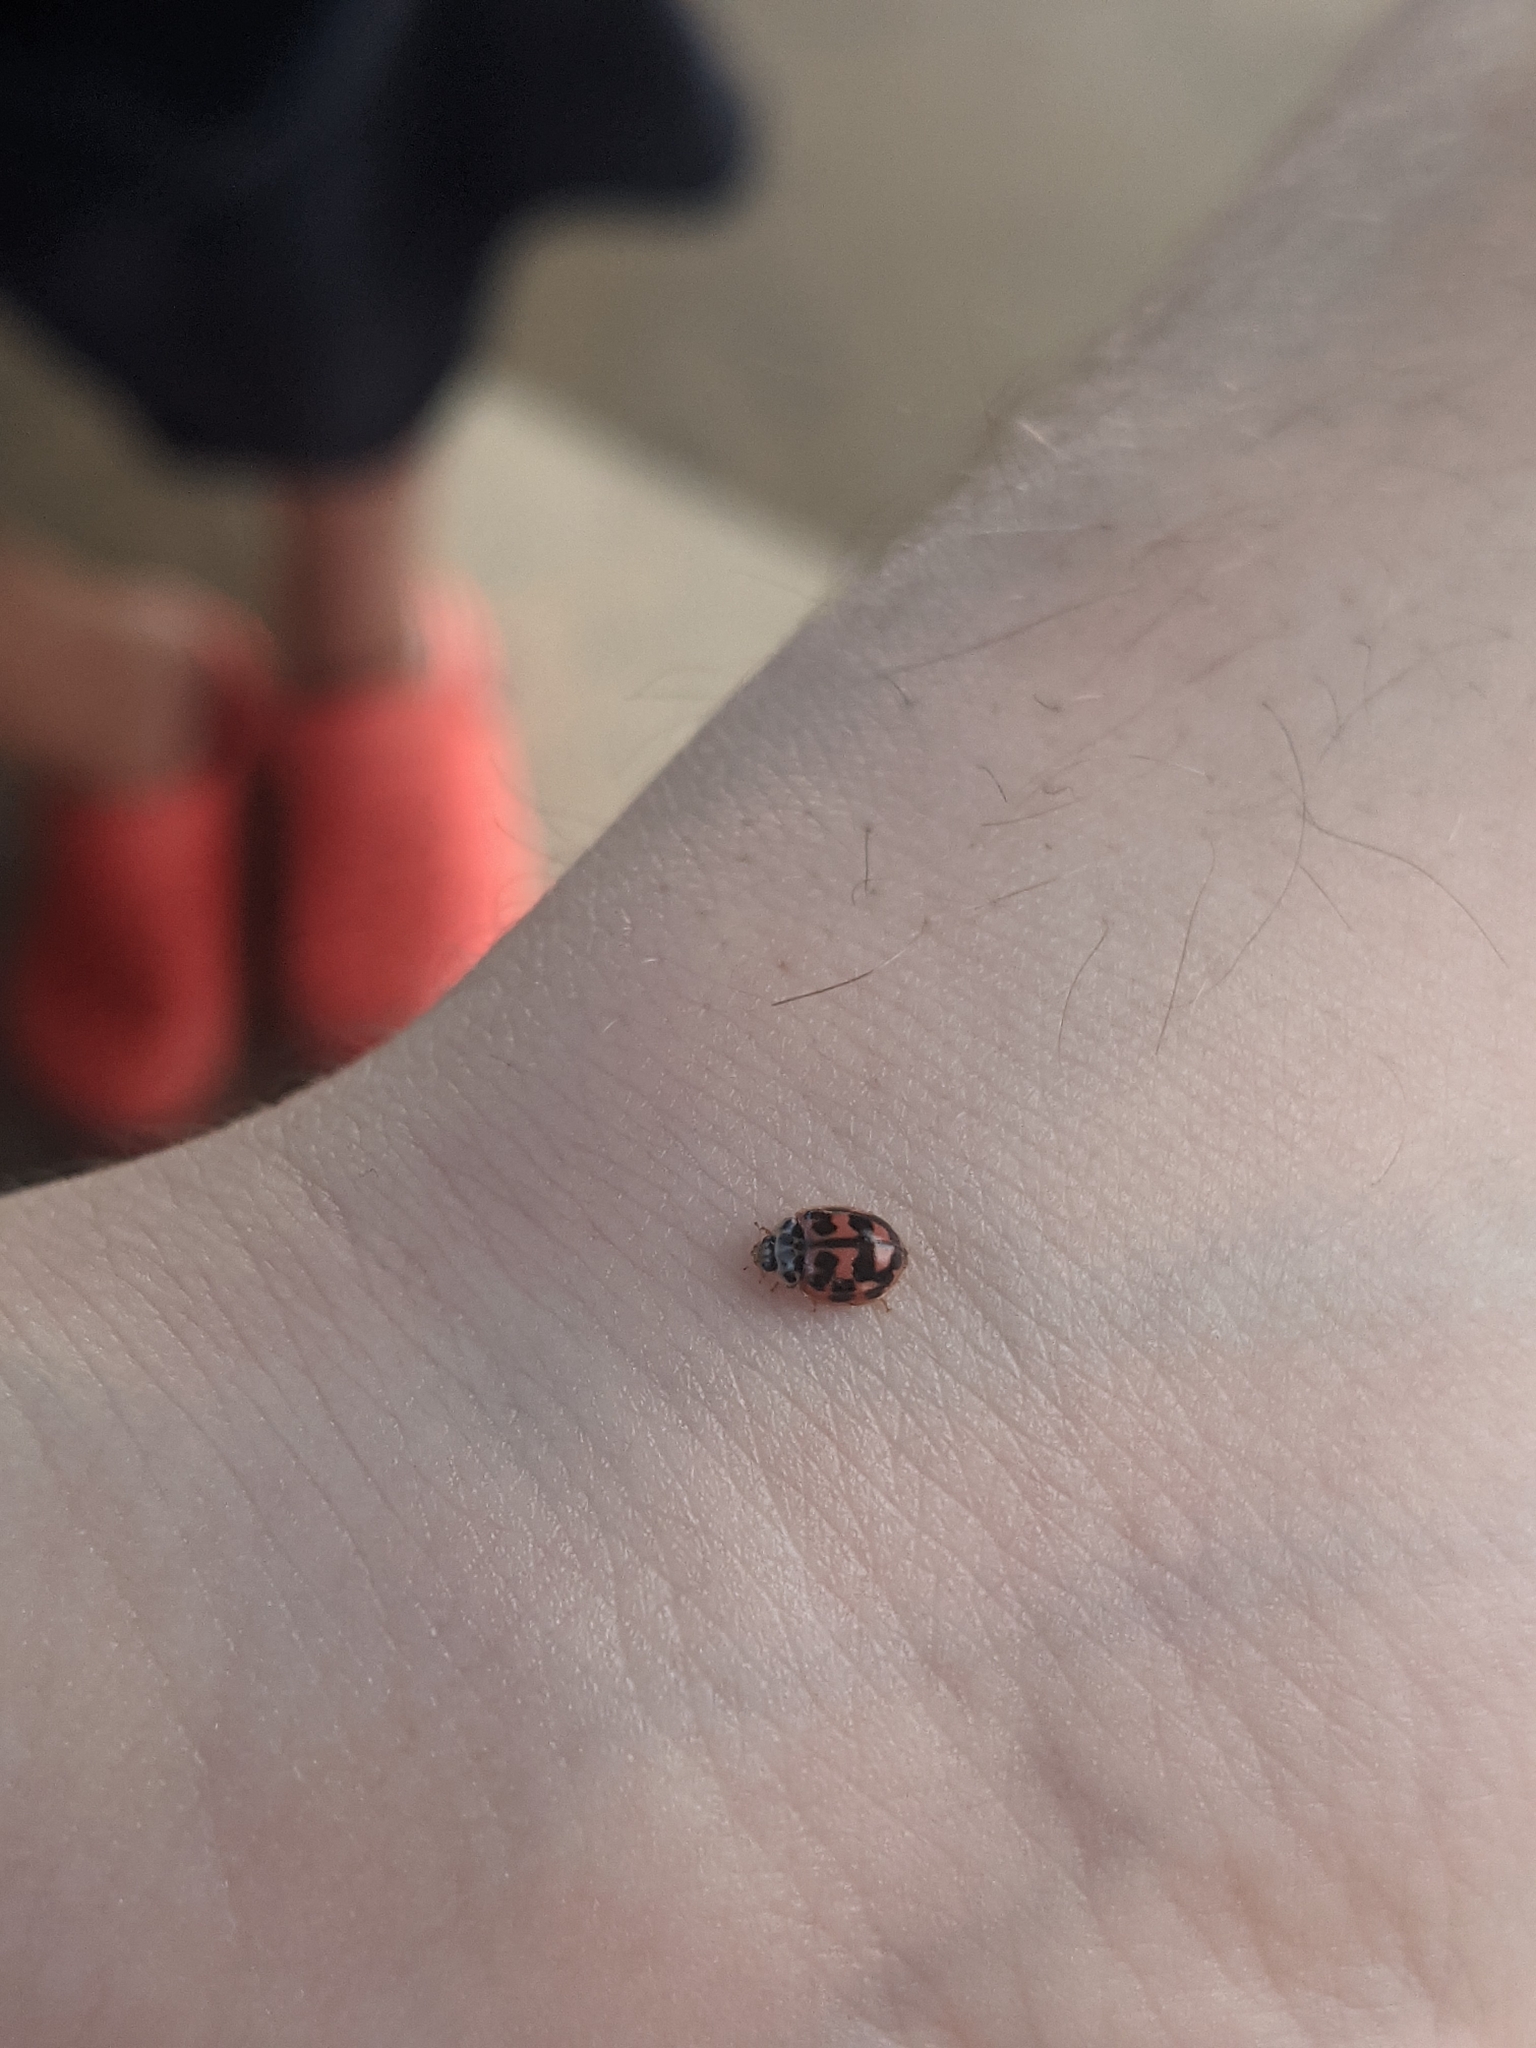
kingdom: Animalia
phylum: Arthropoda
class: Insecta
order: Coleoptera
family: Coccinellidae
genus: Oenopia
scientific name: Oenopia conglobata
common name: Ladybird beetle
